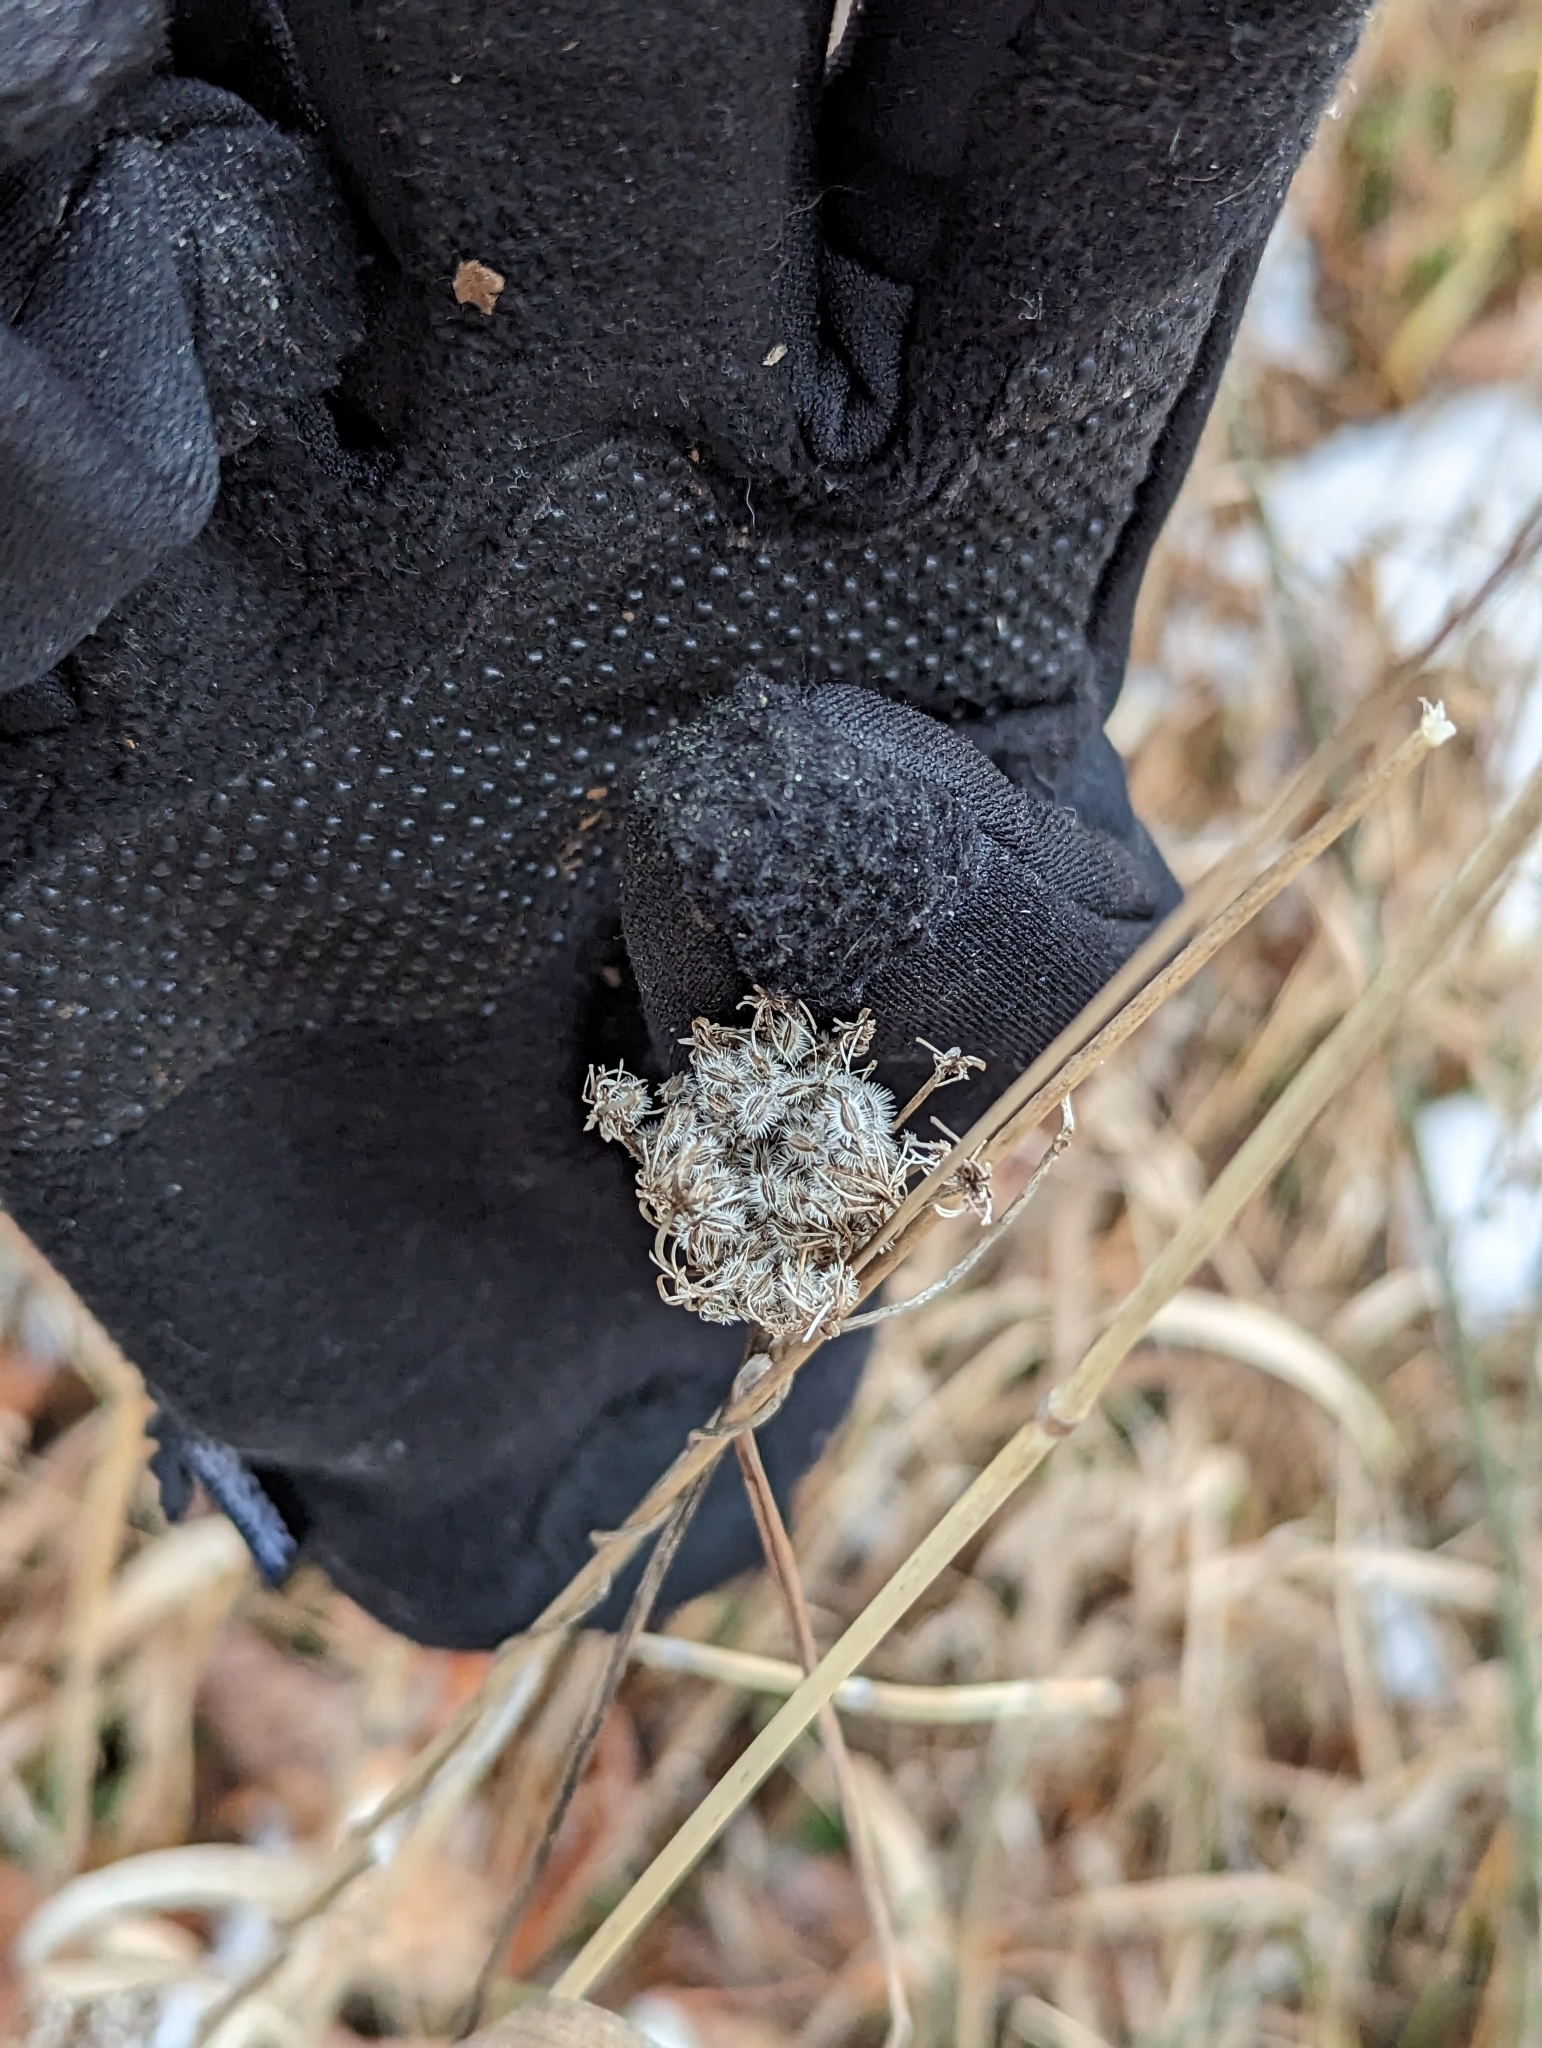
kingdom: Plantae
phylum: Tracheophyta
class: Magnoliopsida
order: Apiales
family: Apiaceae
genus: Daucus
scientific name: Daucus carota
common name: Wild carrot
